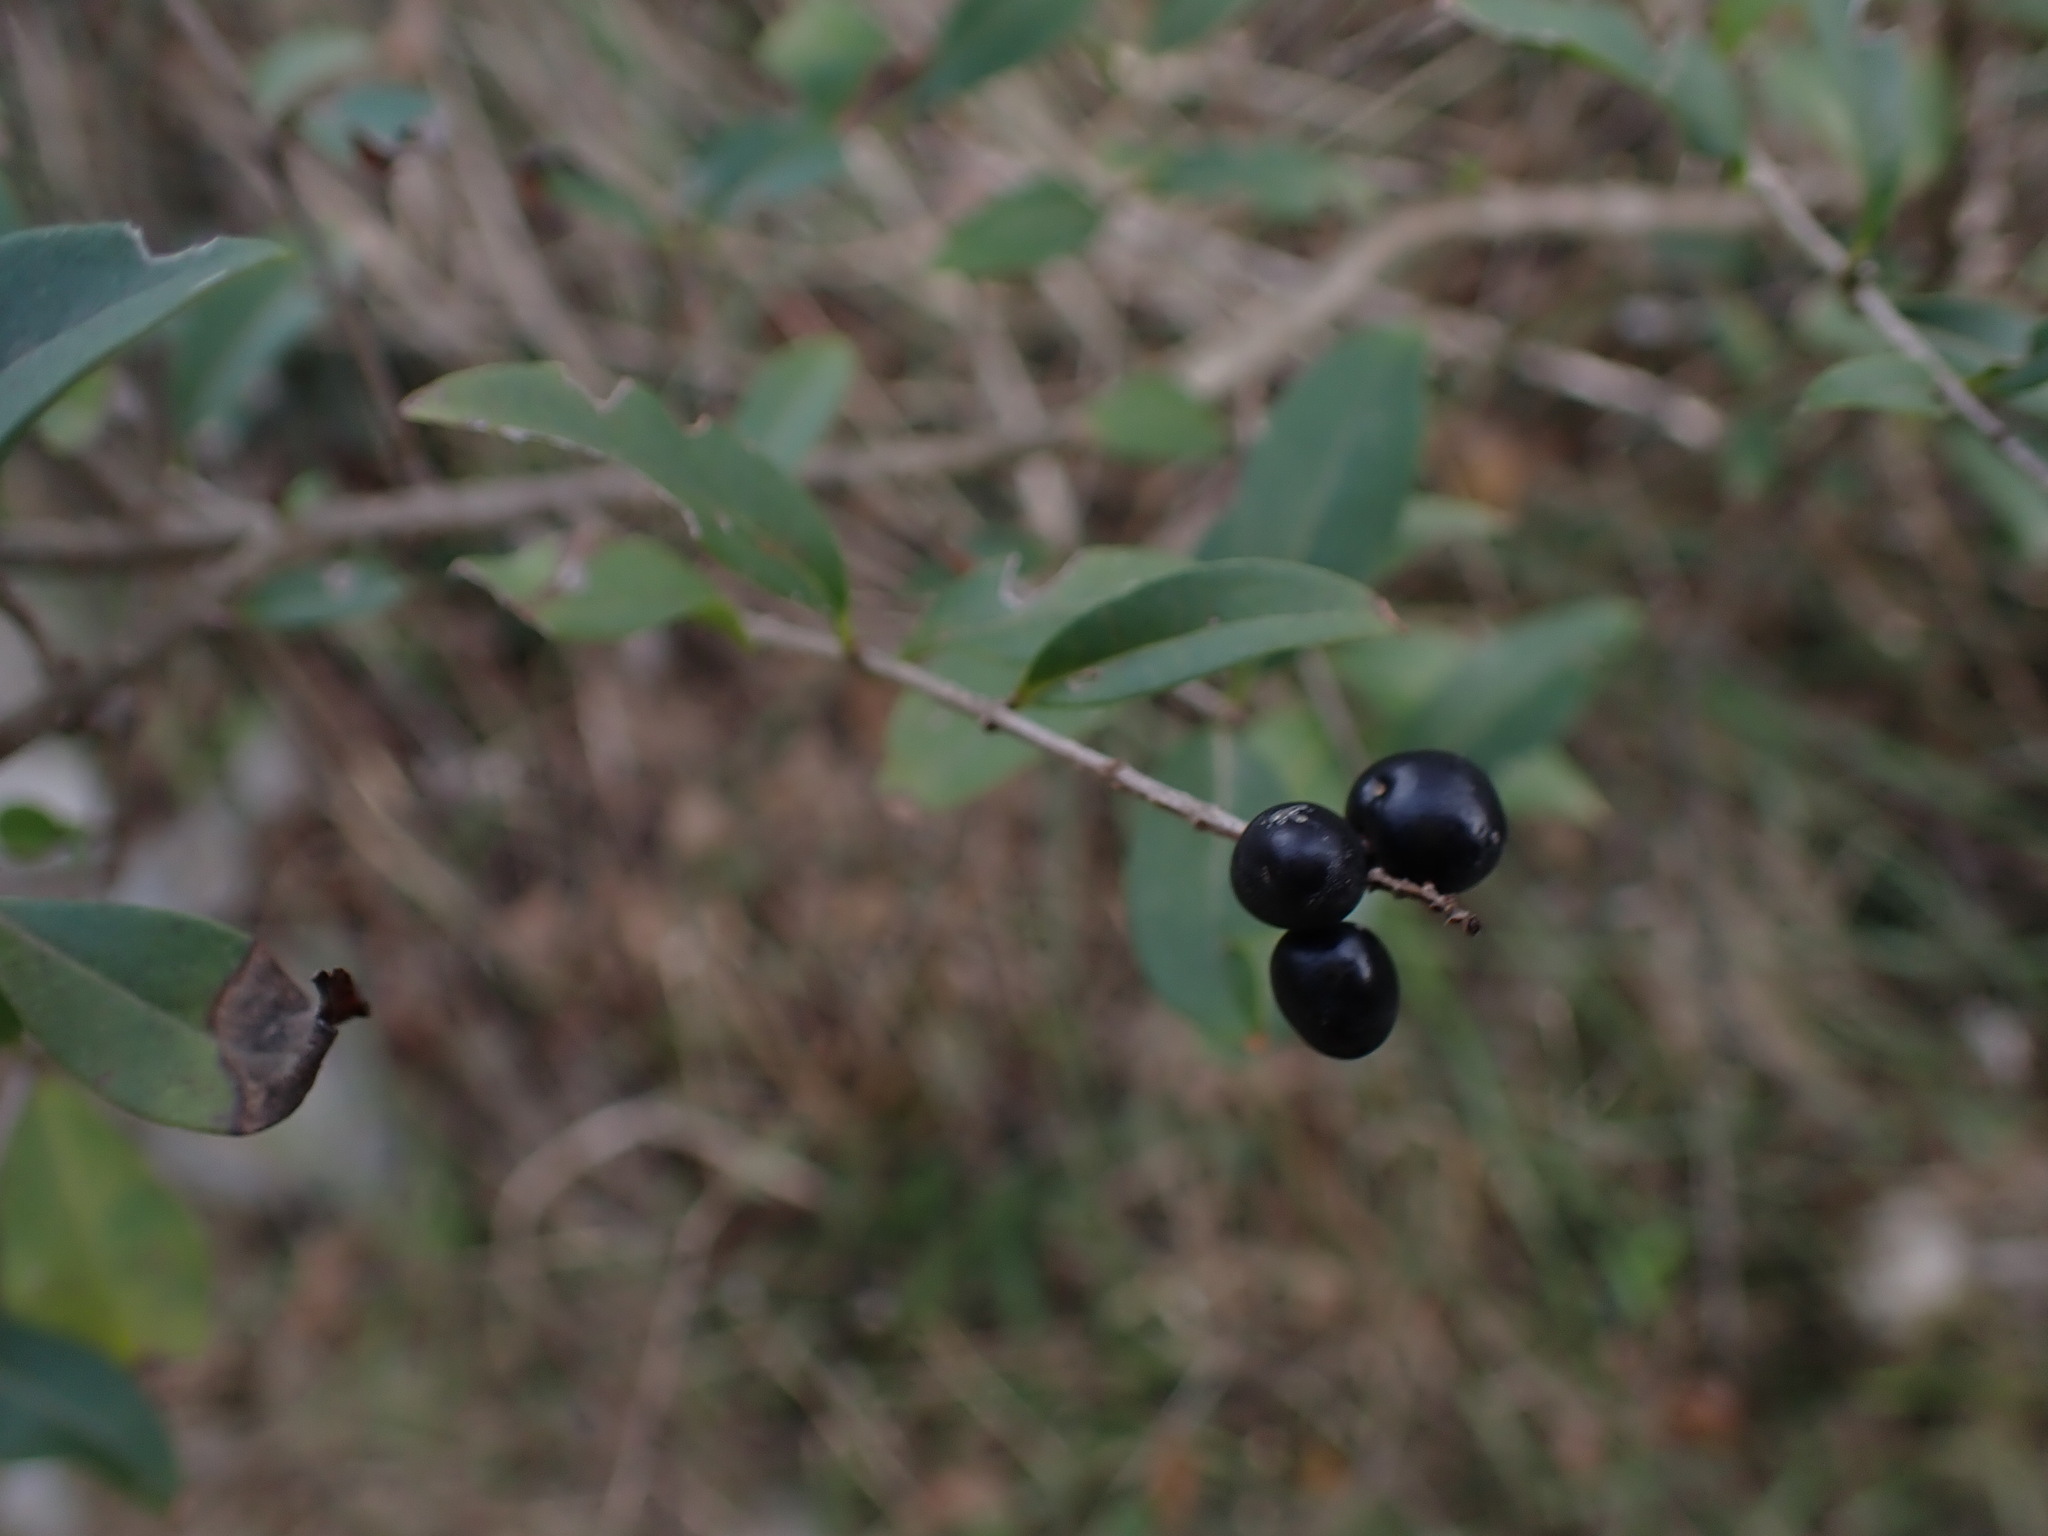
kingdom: Plantae
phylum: Tracheophyta
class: Magnoliopsida
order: Lamiales
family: Oleaceae
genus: Ligustrum
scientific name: Ligustrum vulgare
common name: Wild privet
